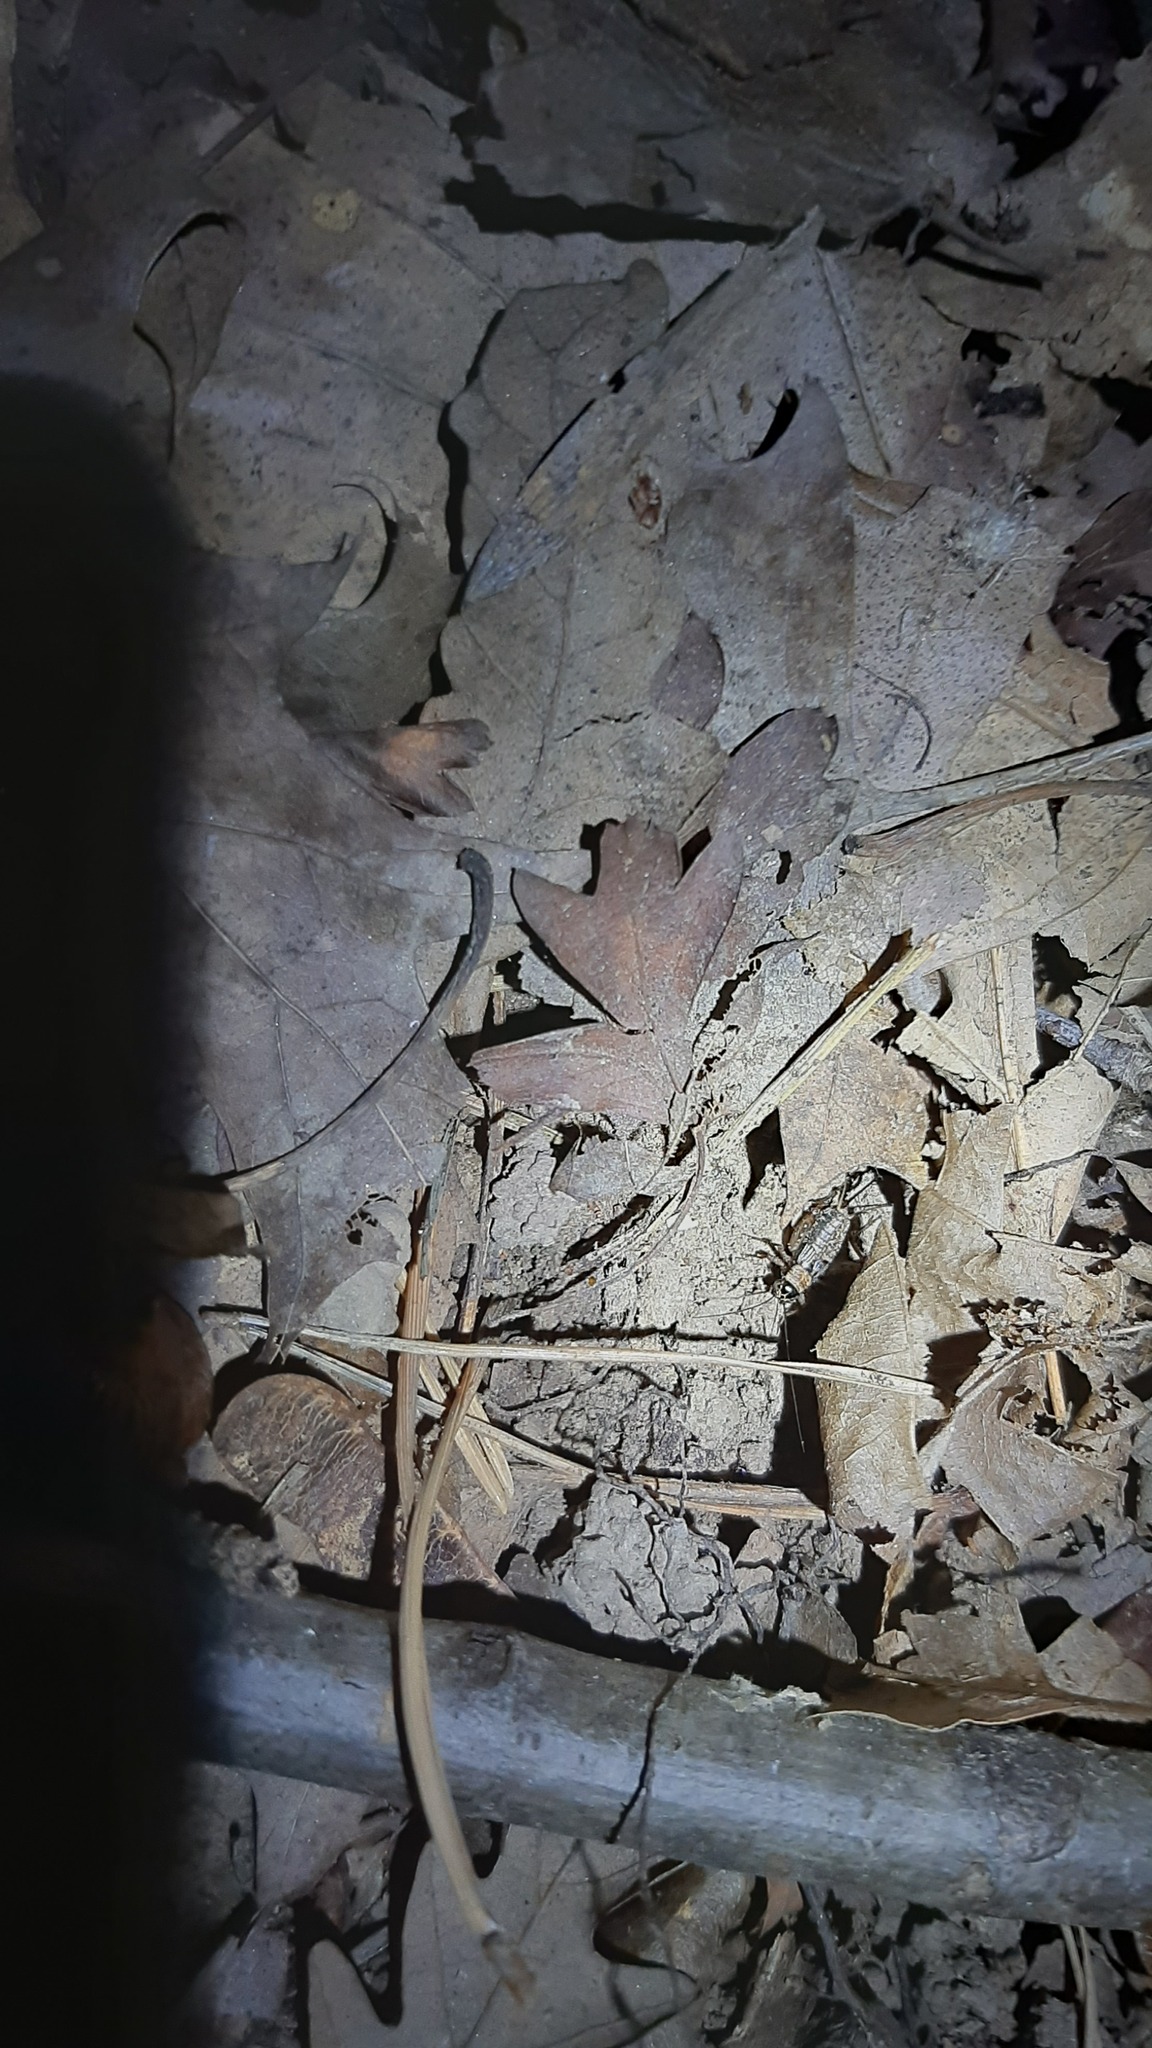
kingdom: Animalia
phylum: Arthropoda
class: Insecta
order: Orthoptera
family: Trigonidiidae
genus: Nemobius
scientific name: Nemobius sylvestris
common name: Wood-cricket
